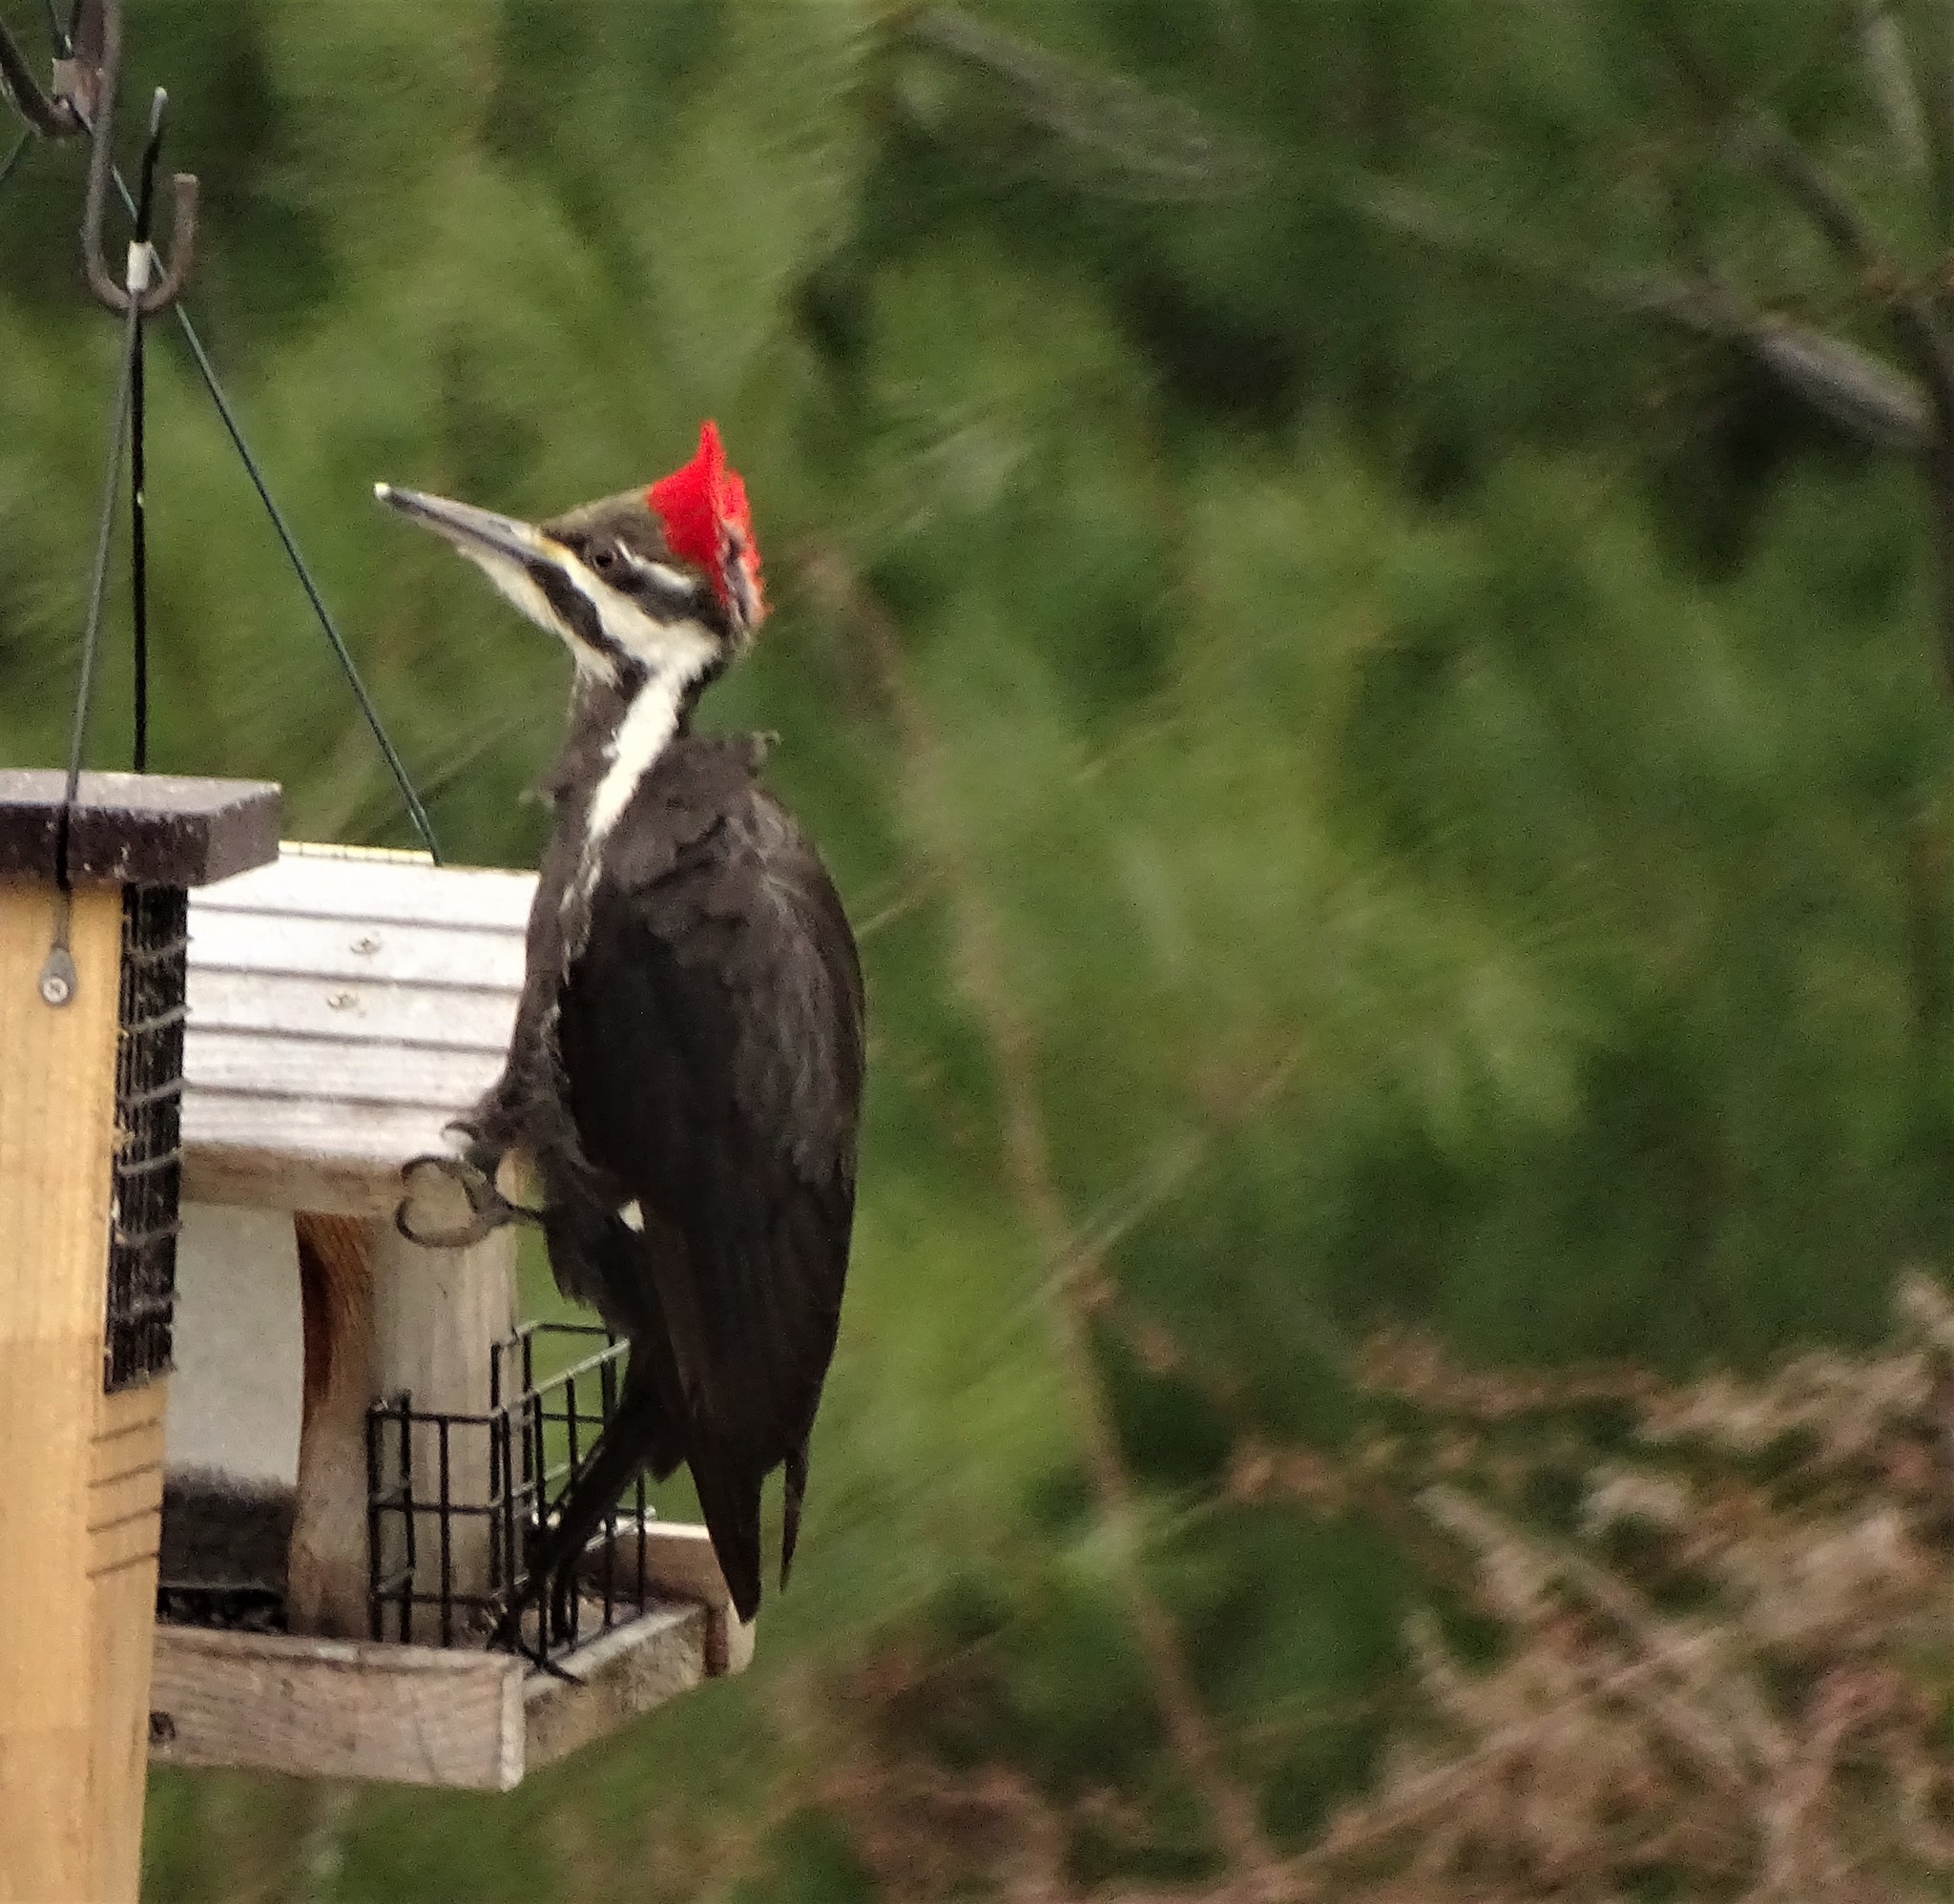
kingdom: Animalia
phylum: Chordata
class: Aves
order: Piciformes
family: Picidae
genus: Dryocopus
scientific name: Dryocopus pileatus
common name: Pileated woodpecker
